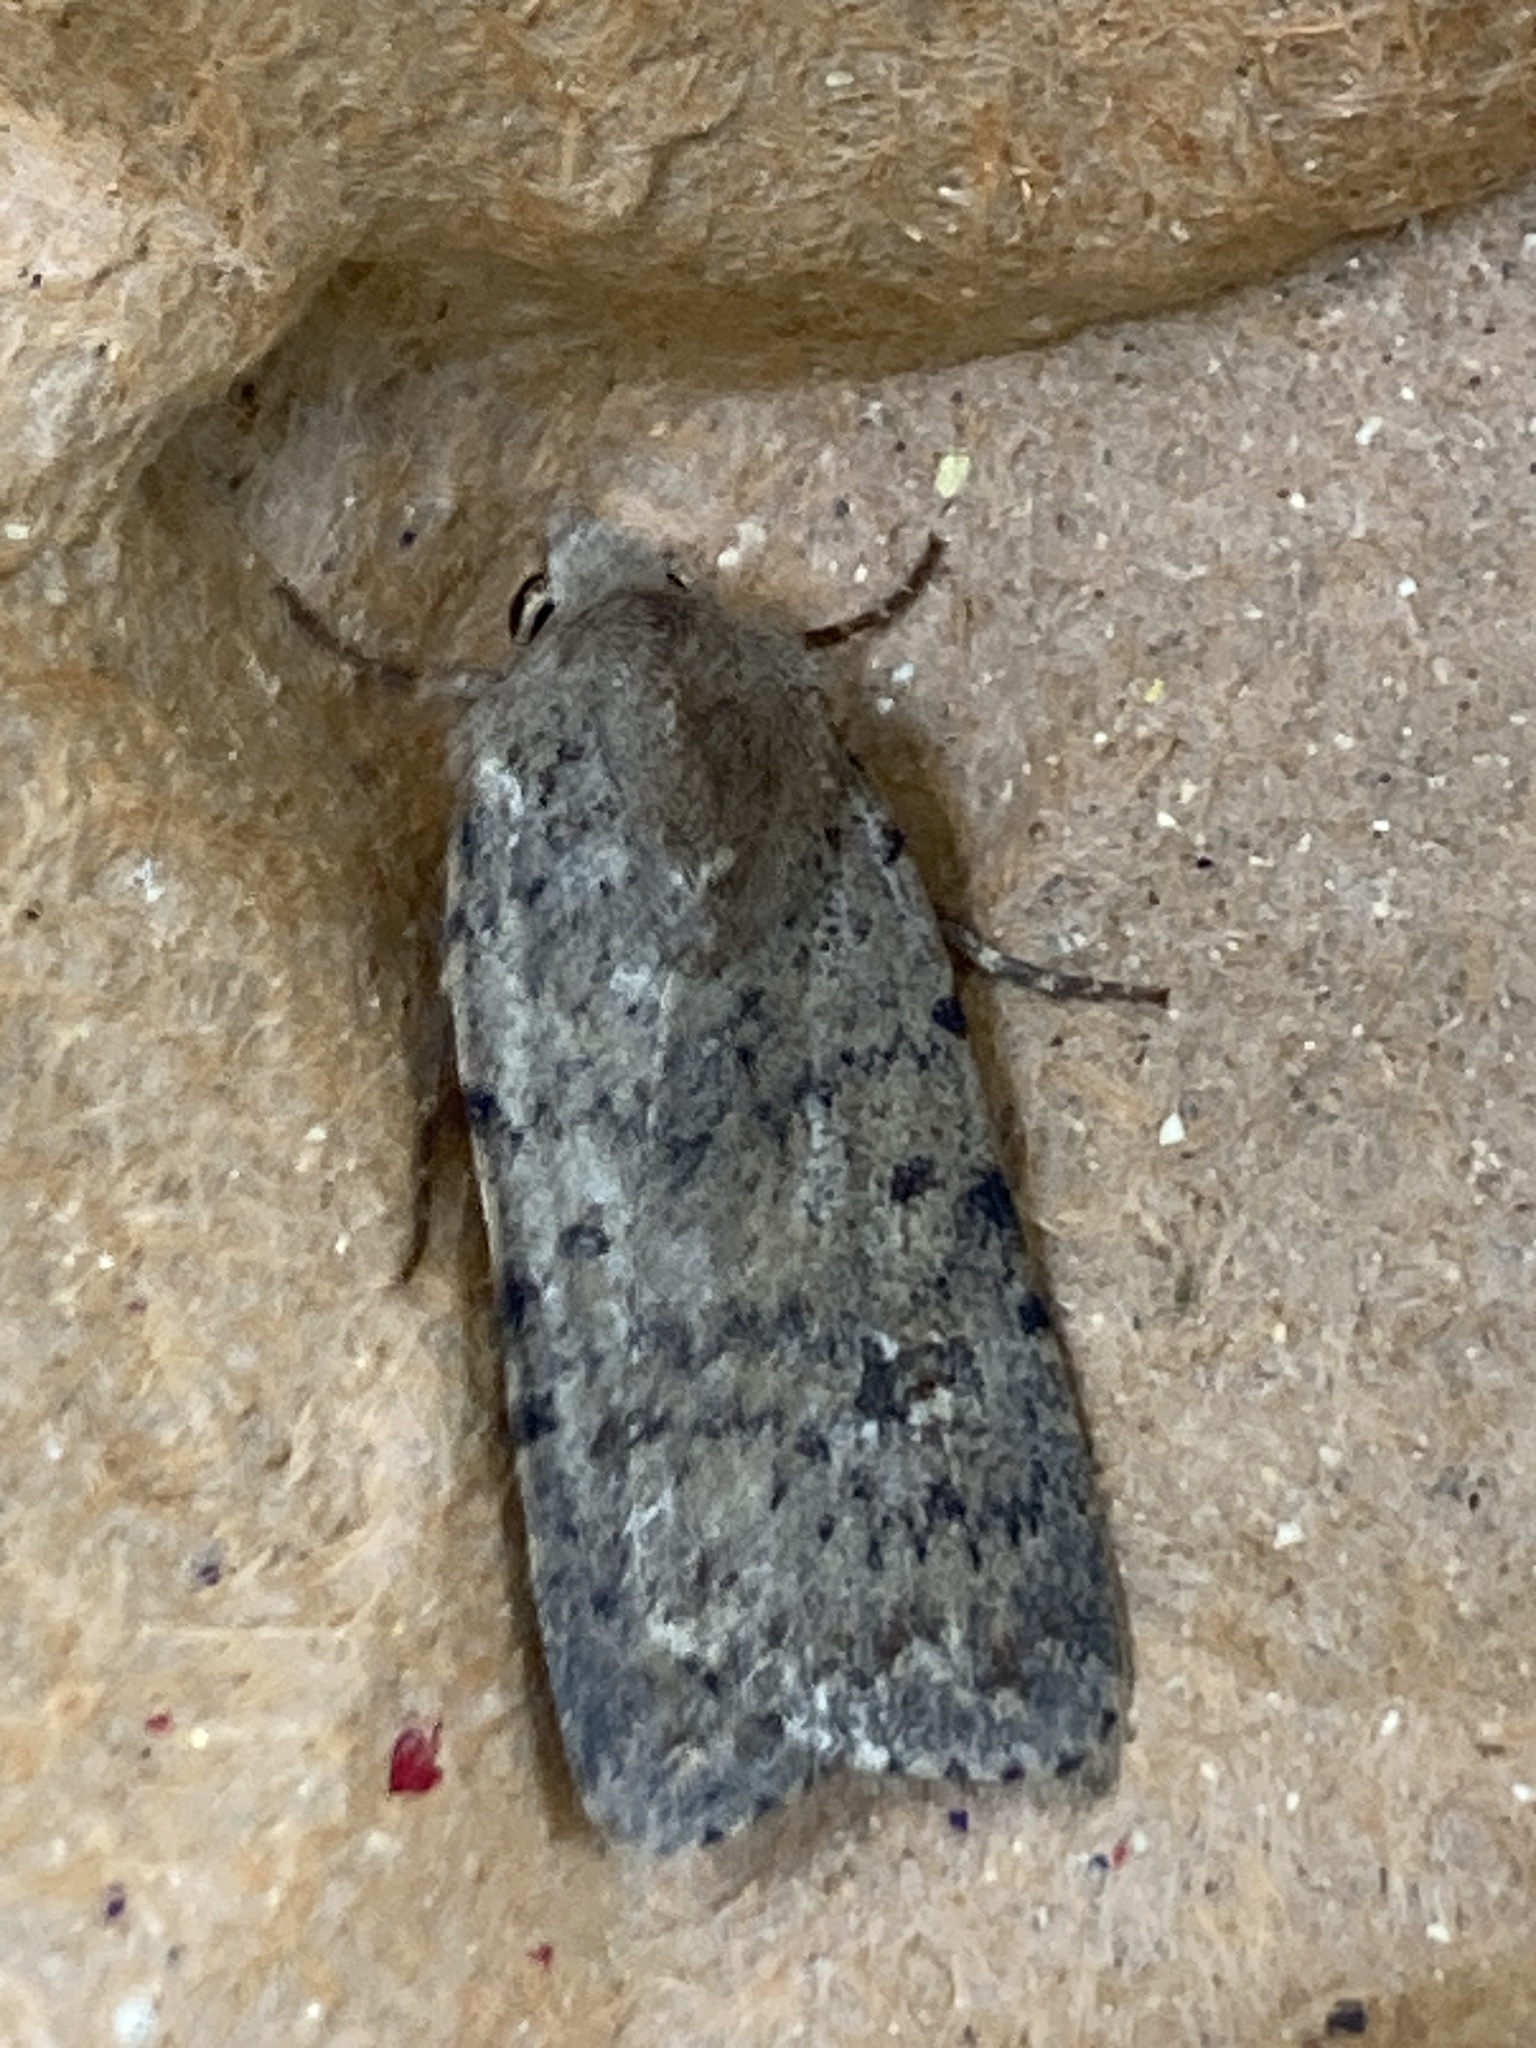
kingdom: Animalia
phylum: Arthropoda
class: Insecta
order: Lepidoptera
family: Noctuidae
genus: Caradrina
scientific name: Caradrina clavipalpis
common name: Pale mottled willow
